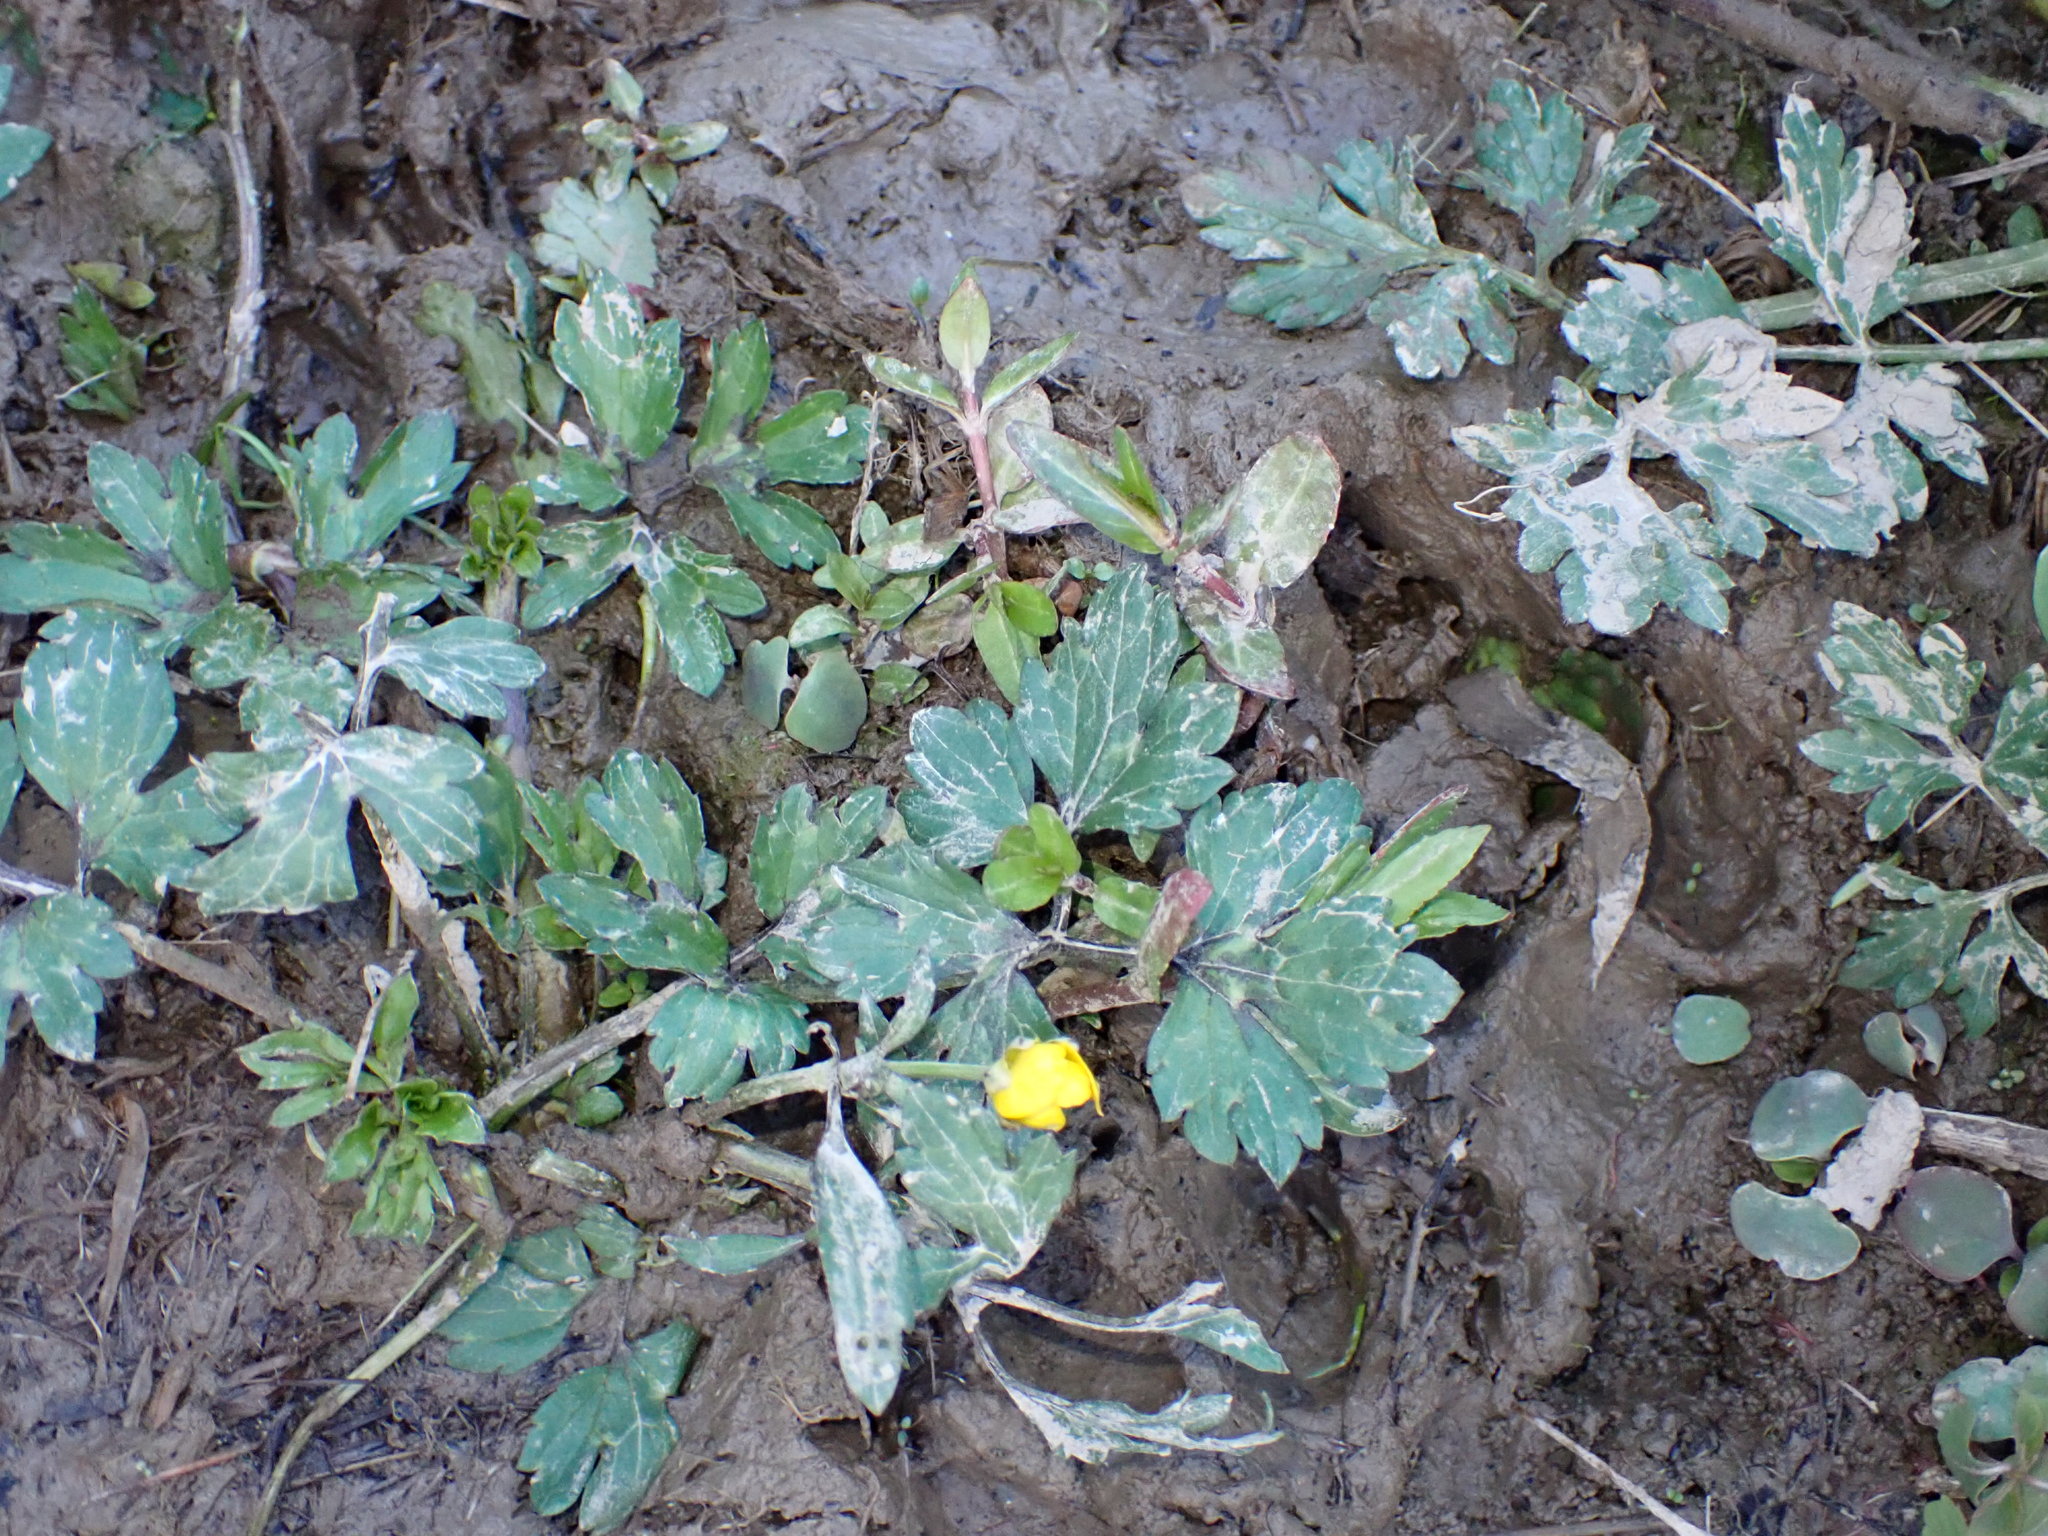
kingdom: Plantae
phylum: Tracheophyta
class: Magnoliopsida
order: Ranunculales
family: Ranunculaceae
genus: Ranunculus
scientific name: Ranunculus repens
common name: Creeping buttercup
